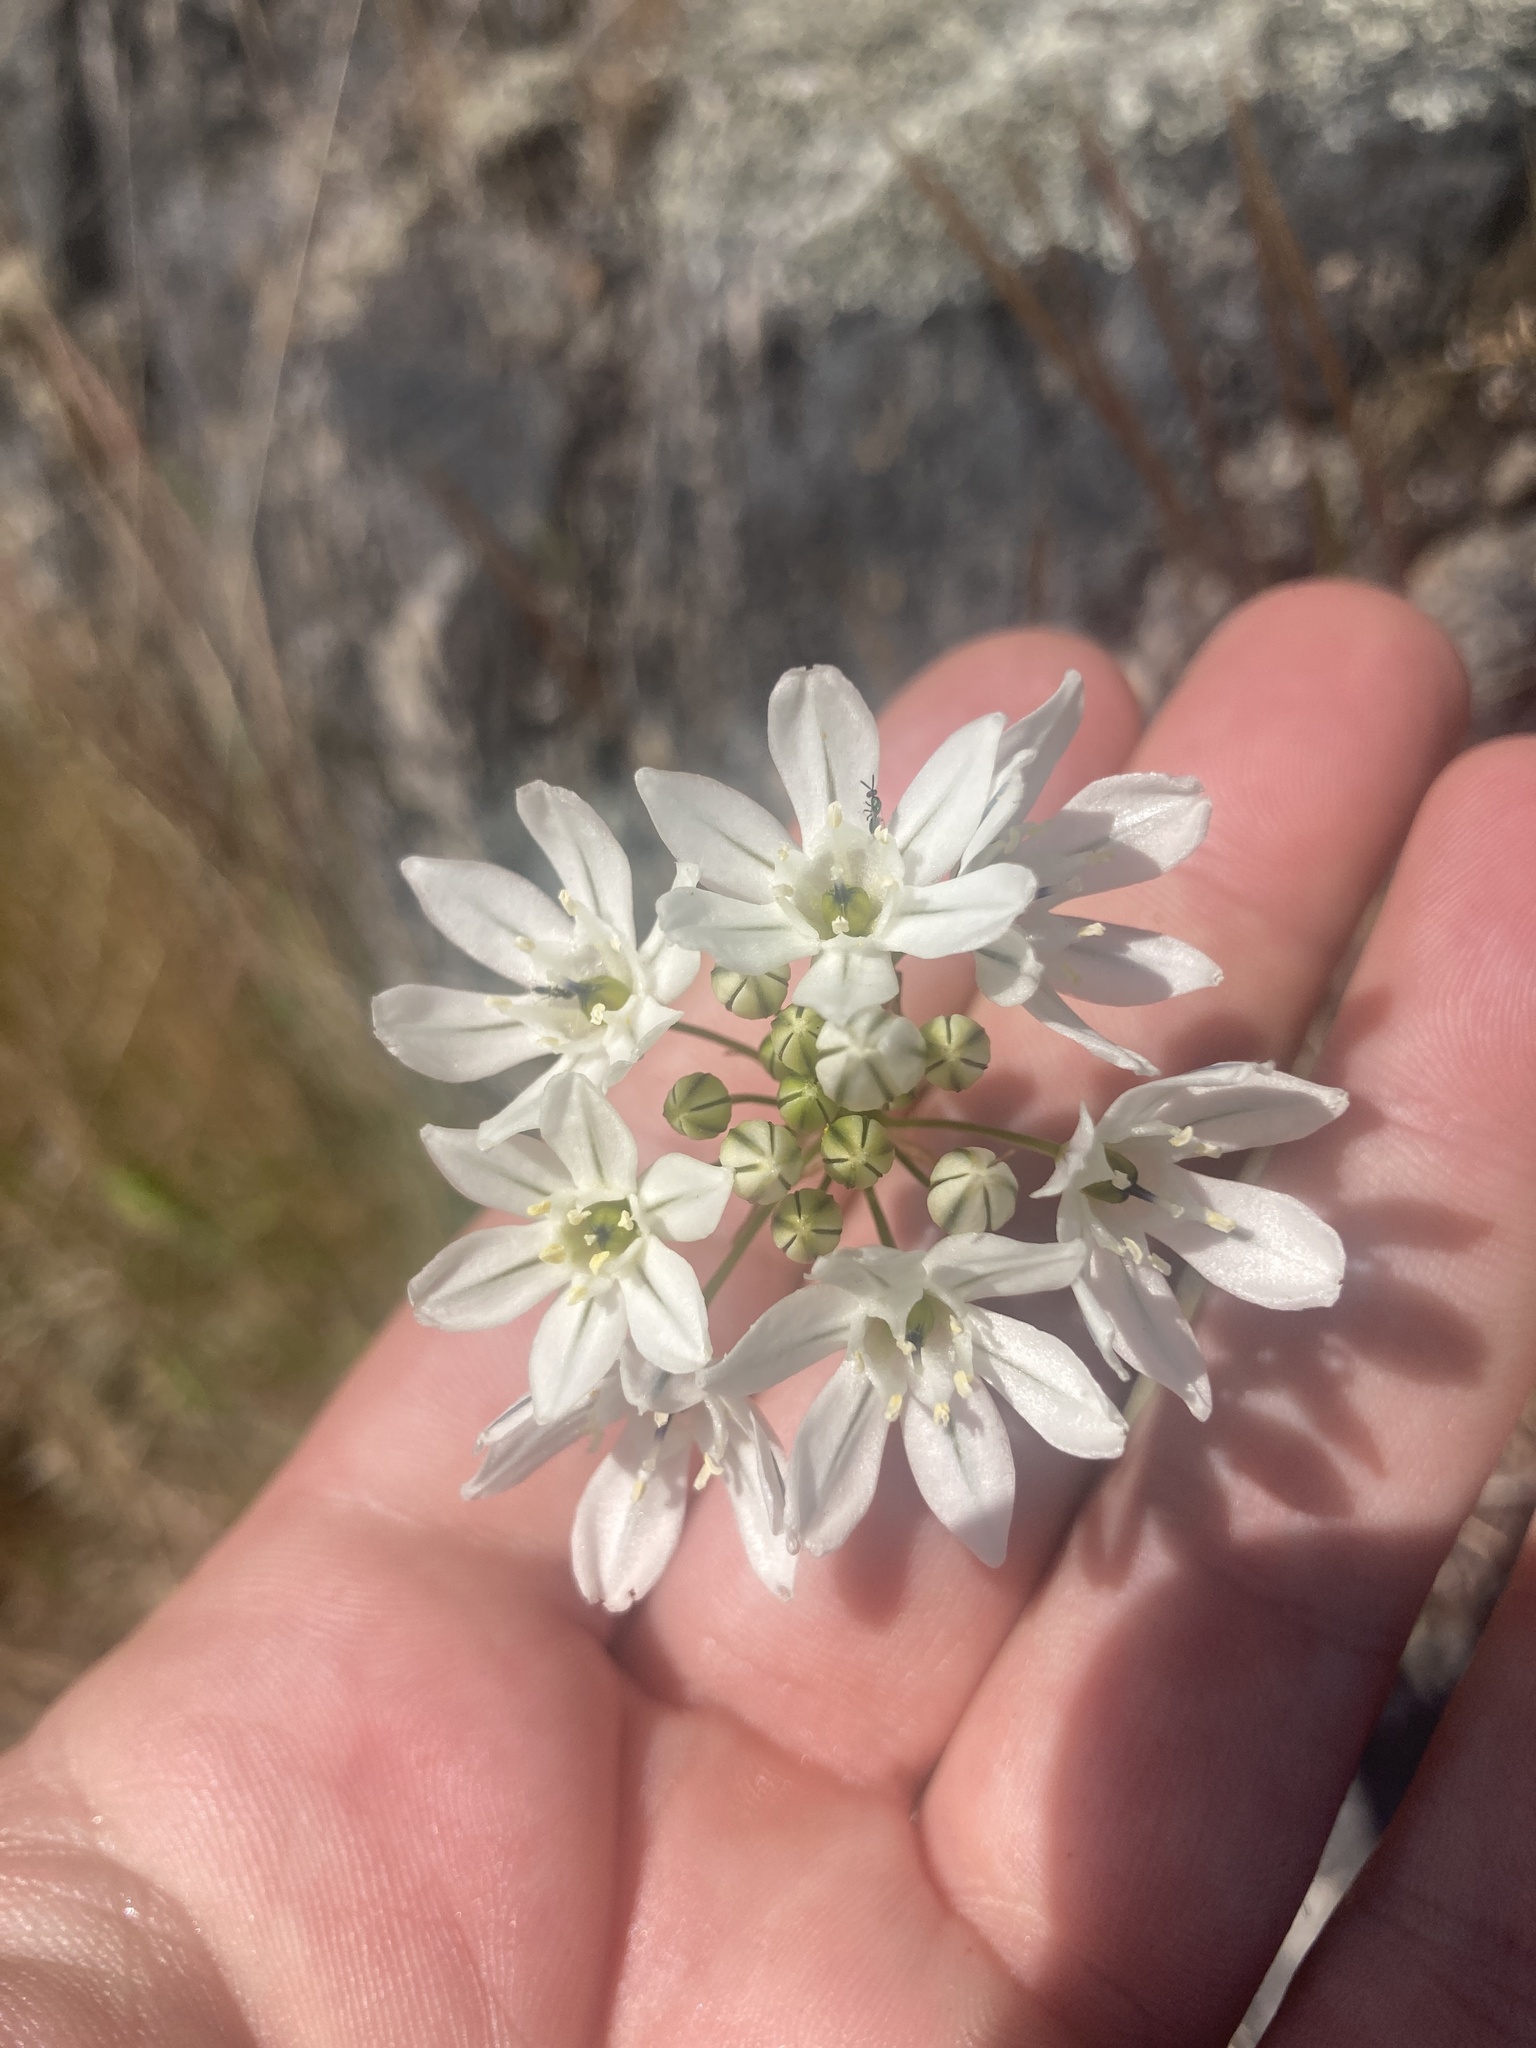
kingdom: Plantae
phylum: Tracheophyta
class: Liliopsida
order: Asparagales
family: Asparagaceae
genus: Triteleia
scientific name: Triteleia hyacinthina
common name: White brodiaea
